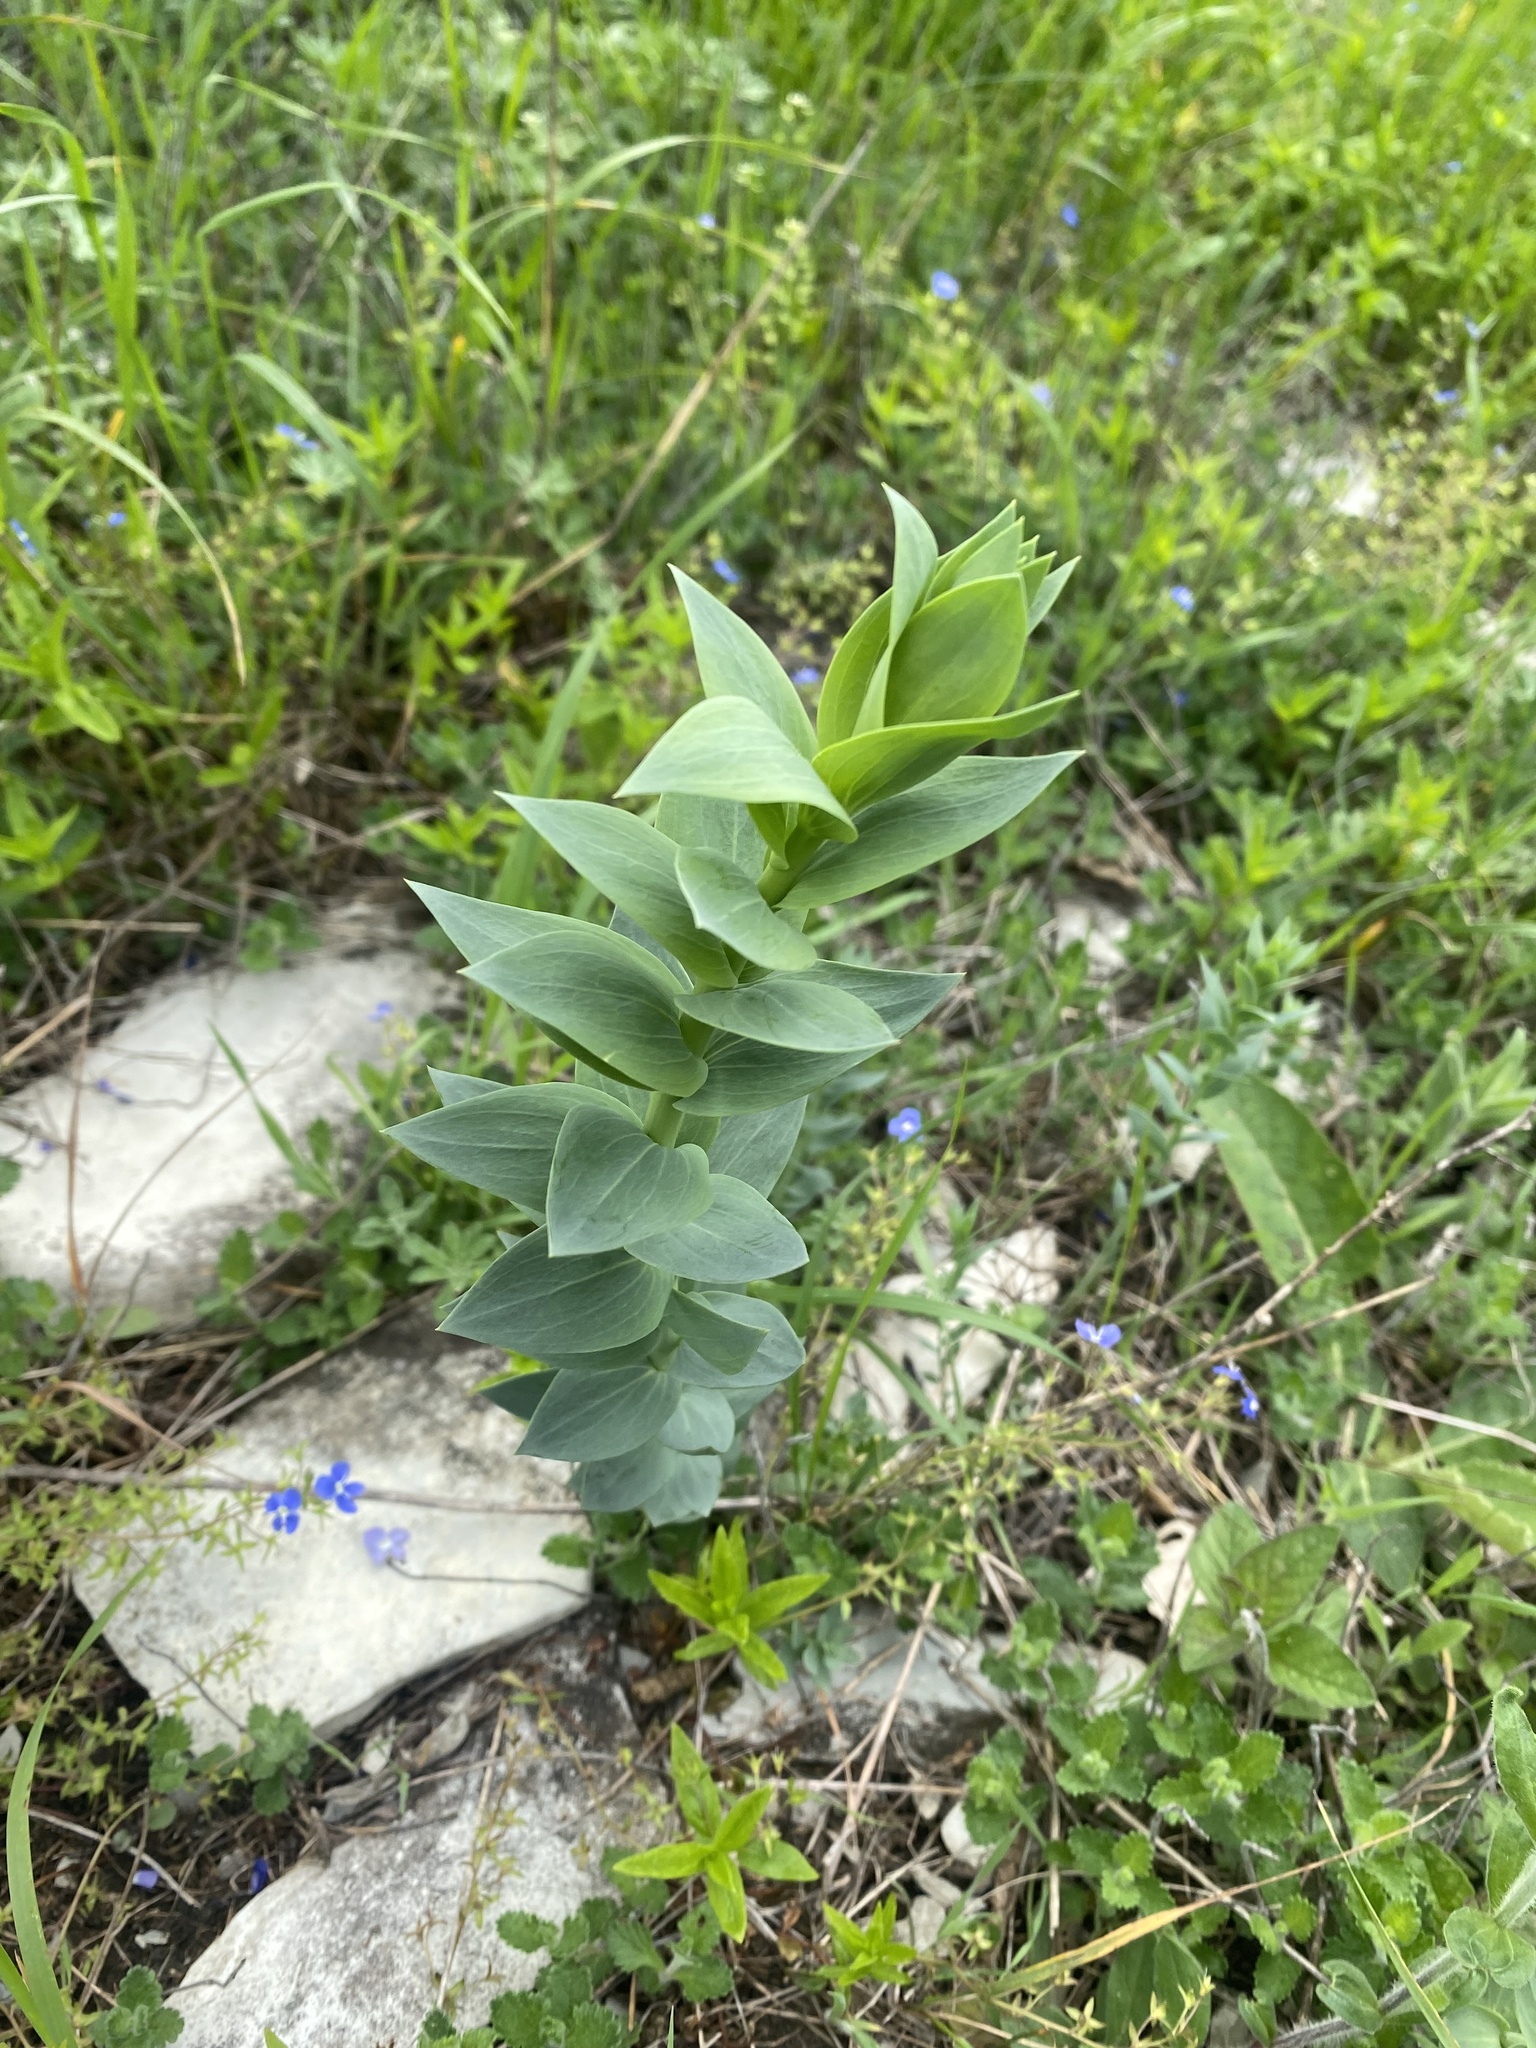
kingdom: Plantae
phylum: Tracheophyta
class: Magnoliopsida
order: Lamiales
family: Plantaginaceae
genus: Linaria
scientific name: Linaria genistifolia
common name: Broomleaf toadflax
